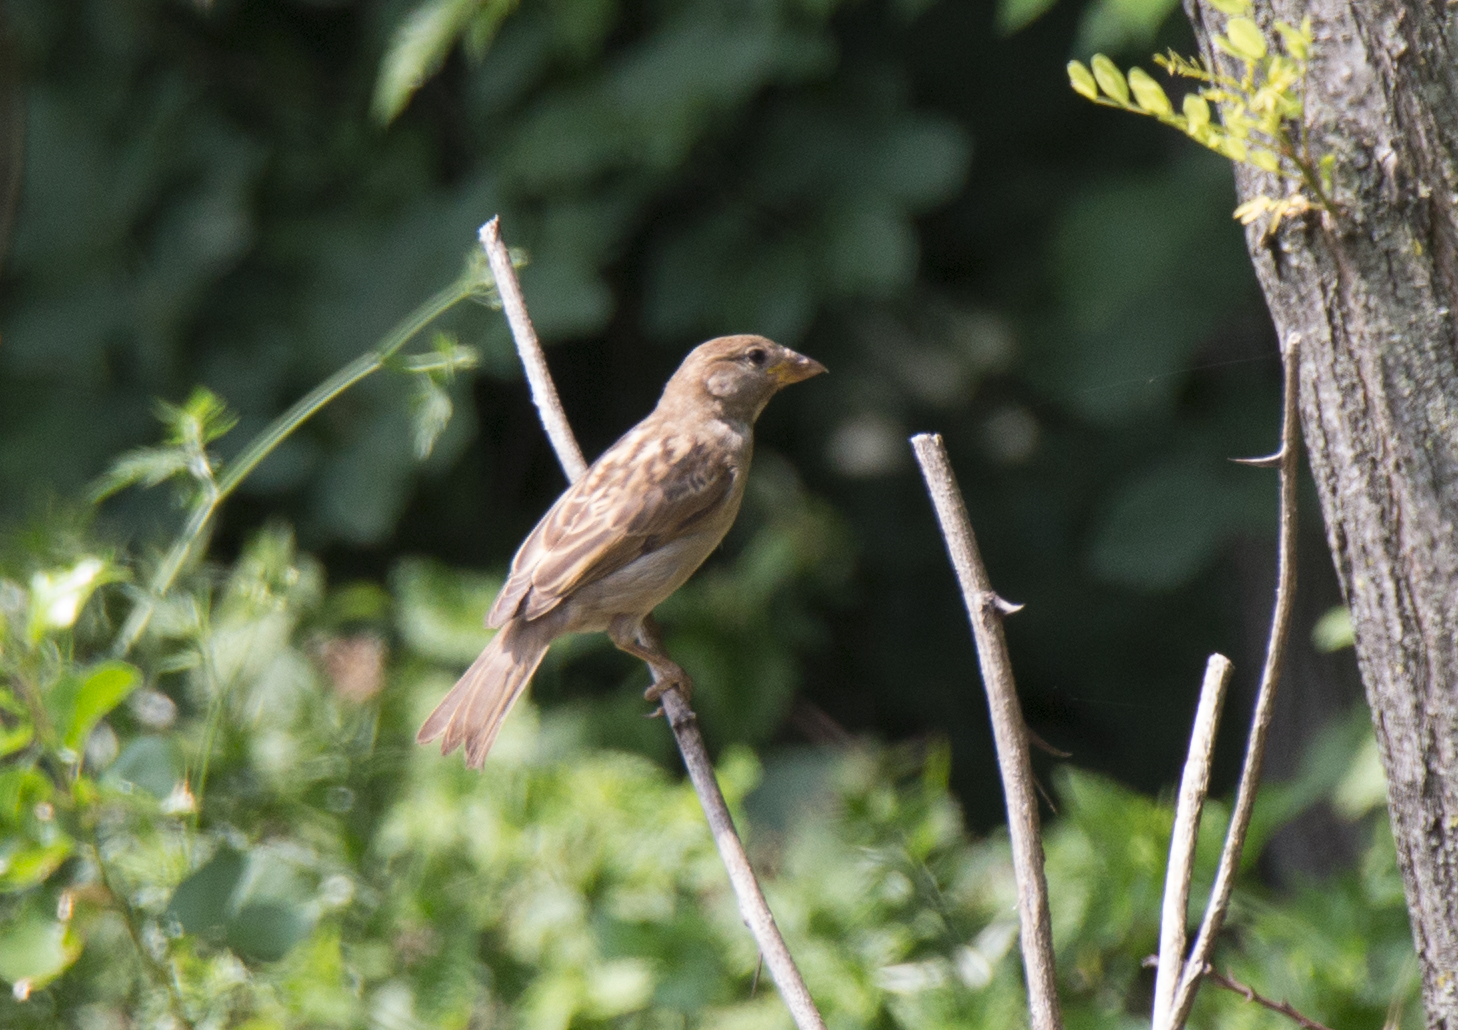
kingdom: Animalia
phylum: Chordata
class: Aves
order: Passeriformes
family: Passeridae
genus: Passer
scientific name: Passer italiae
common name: Italian sparrow
